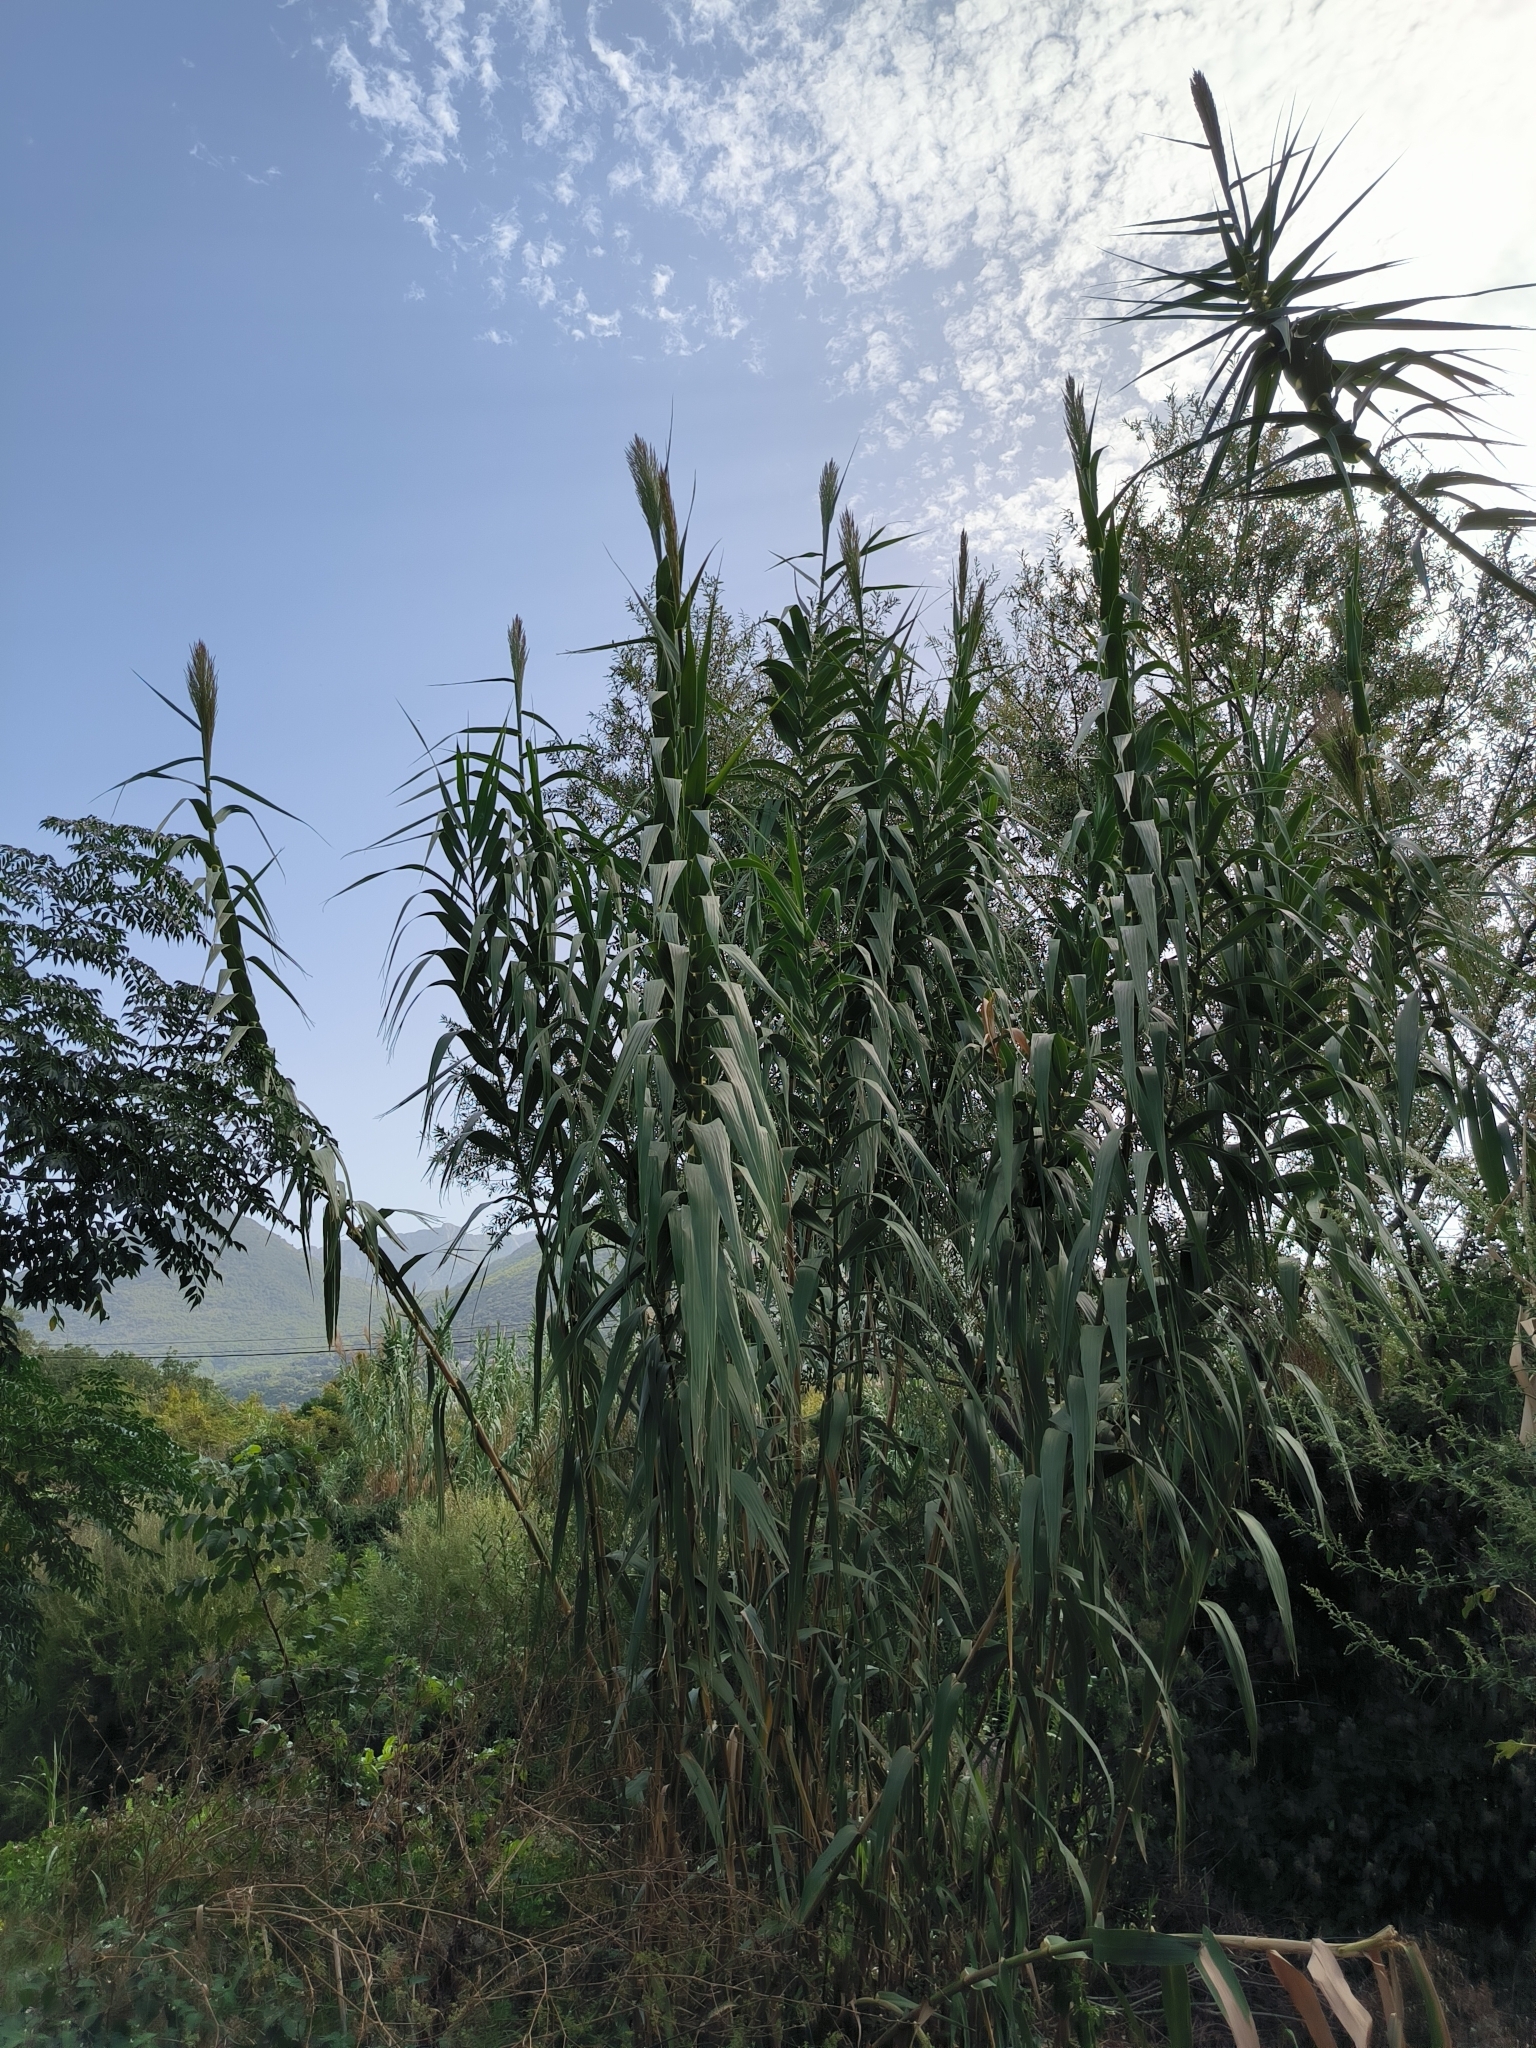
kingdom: Plantae
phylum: Tracheophyta
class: Liliopsida
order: Poales
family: Poaceae
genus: Arundo
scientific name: Arundo donax
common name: Giant reed
